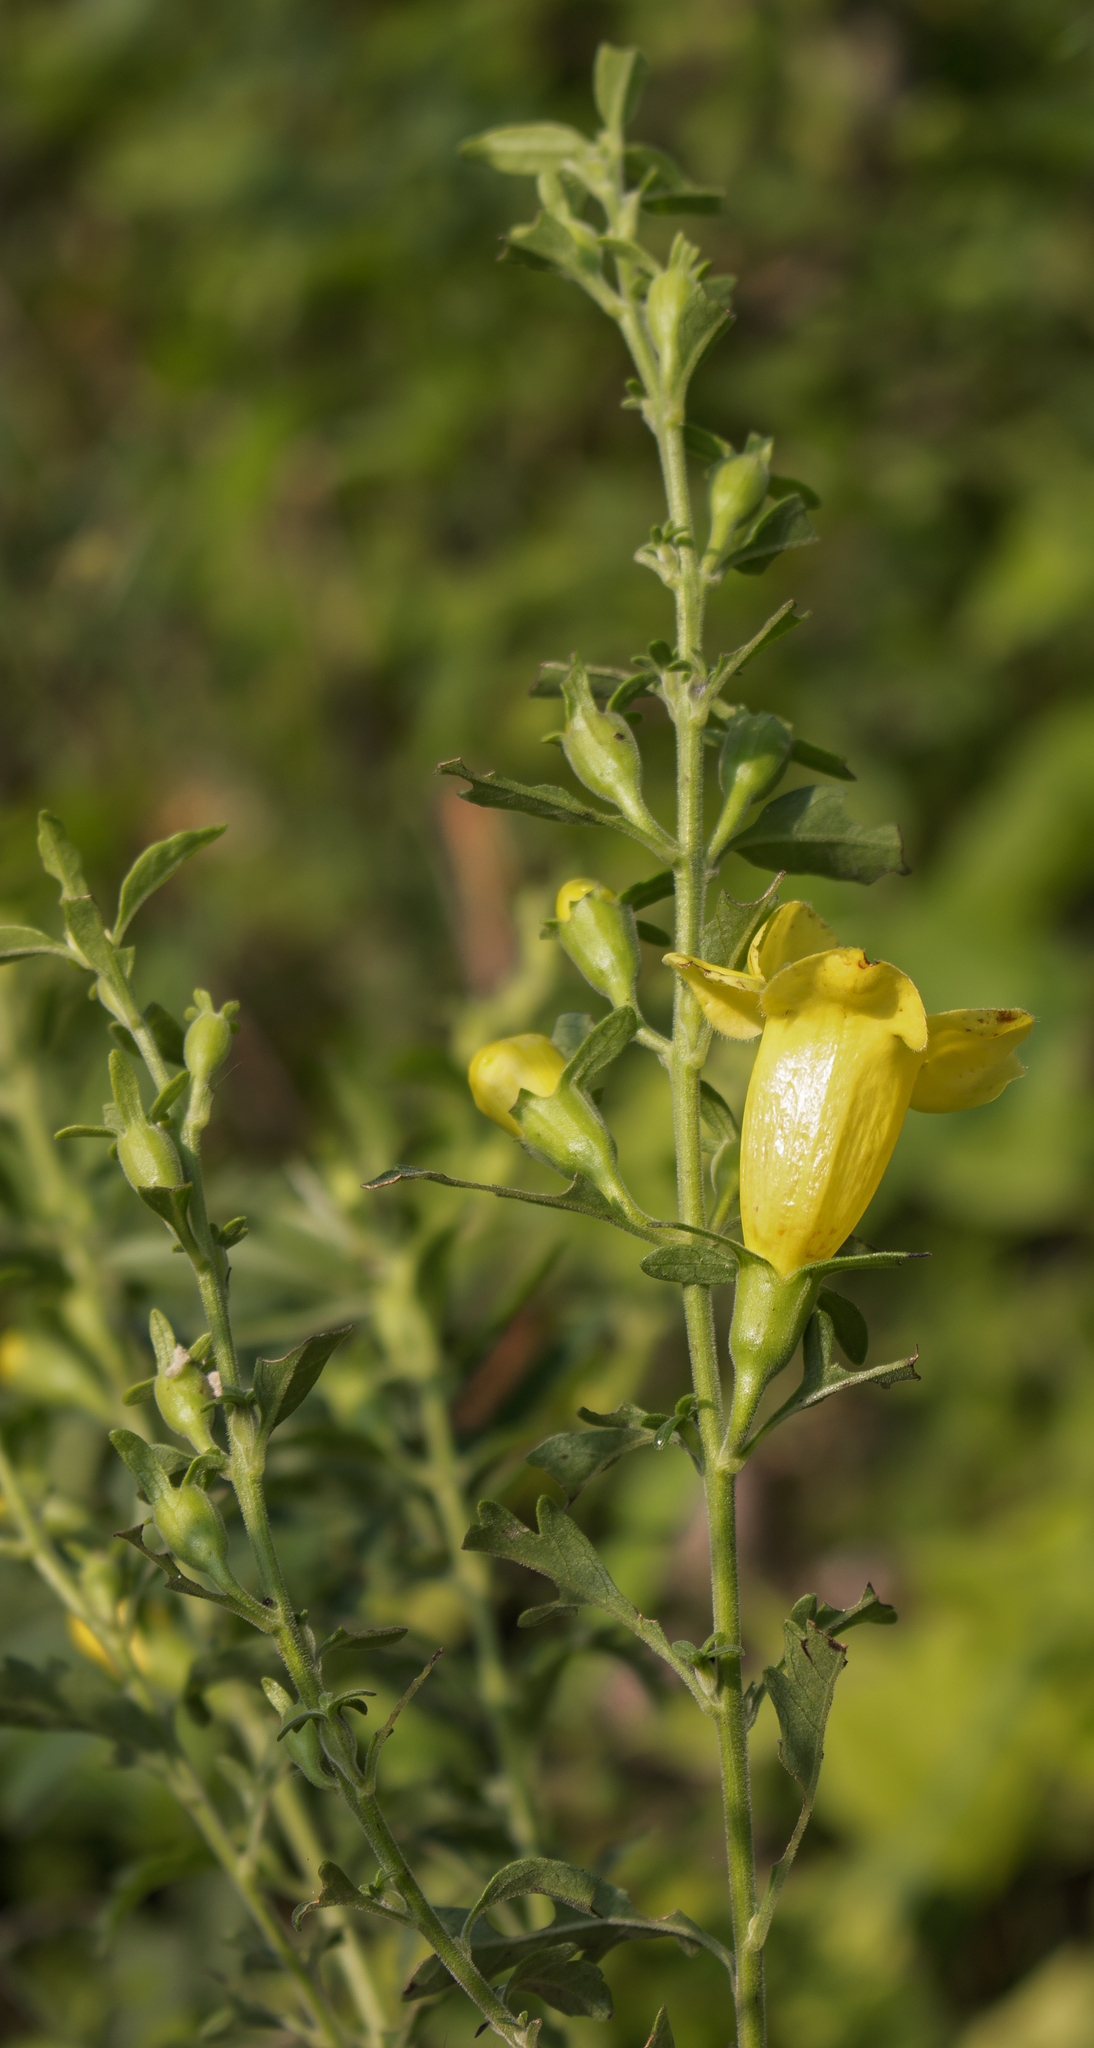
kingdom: Plantae
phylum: Tracheophyta
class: Magnoliopsida
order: Lamiales
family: Orobanchaceae
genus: Aureolaria
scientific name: Aureolaria grandiflora
